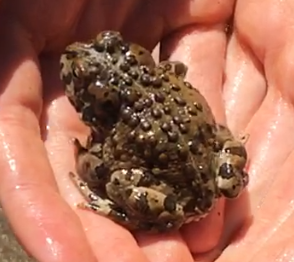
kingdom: Animalia
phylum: Chordata
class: Amphibia
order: Anura
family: Bufonidae
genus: Anaxyrus
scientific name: Anaxyrus canorus
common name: Yosemite toad
